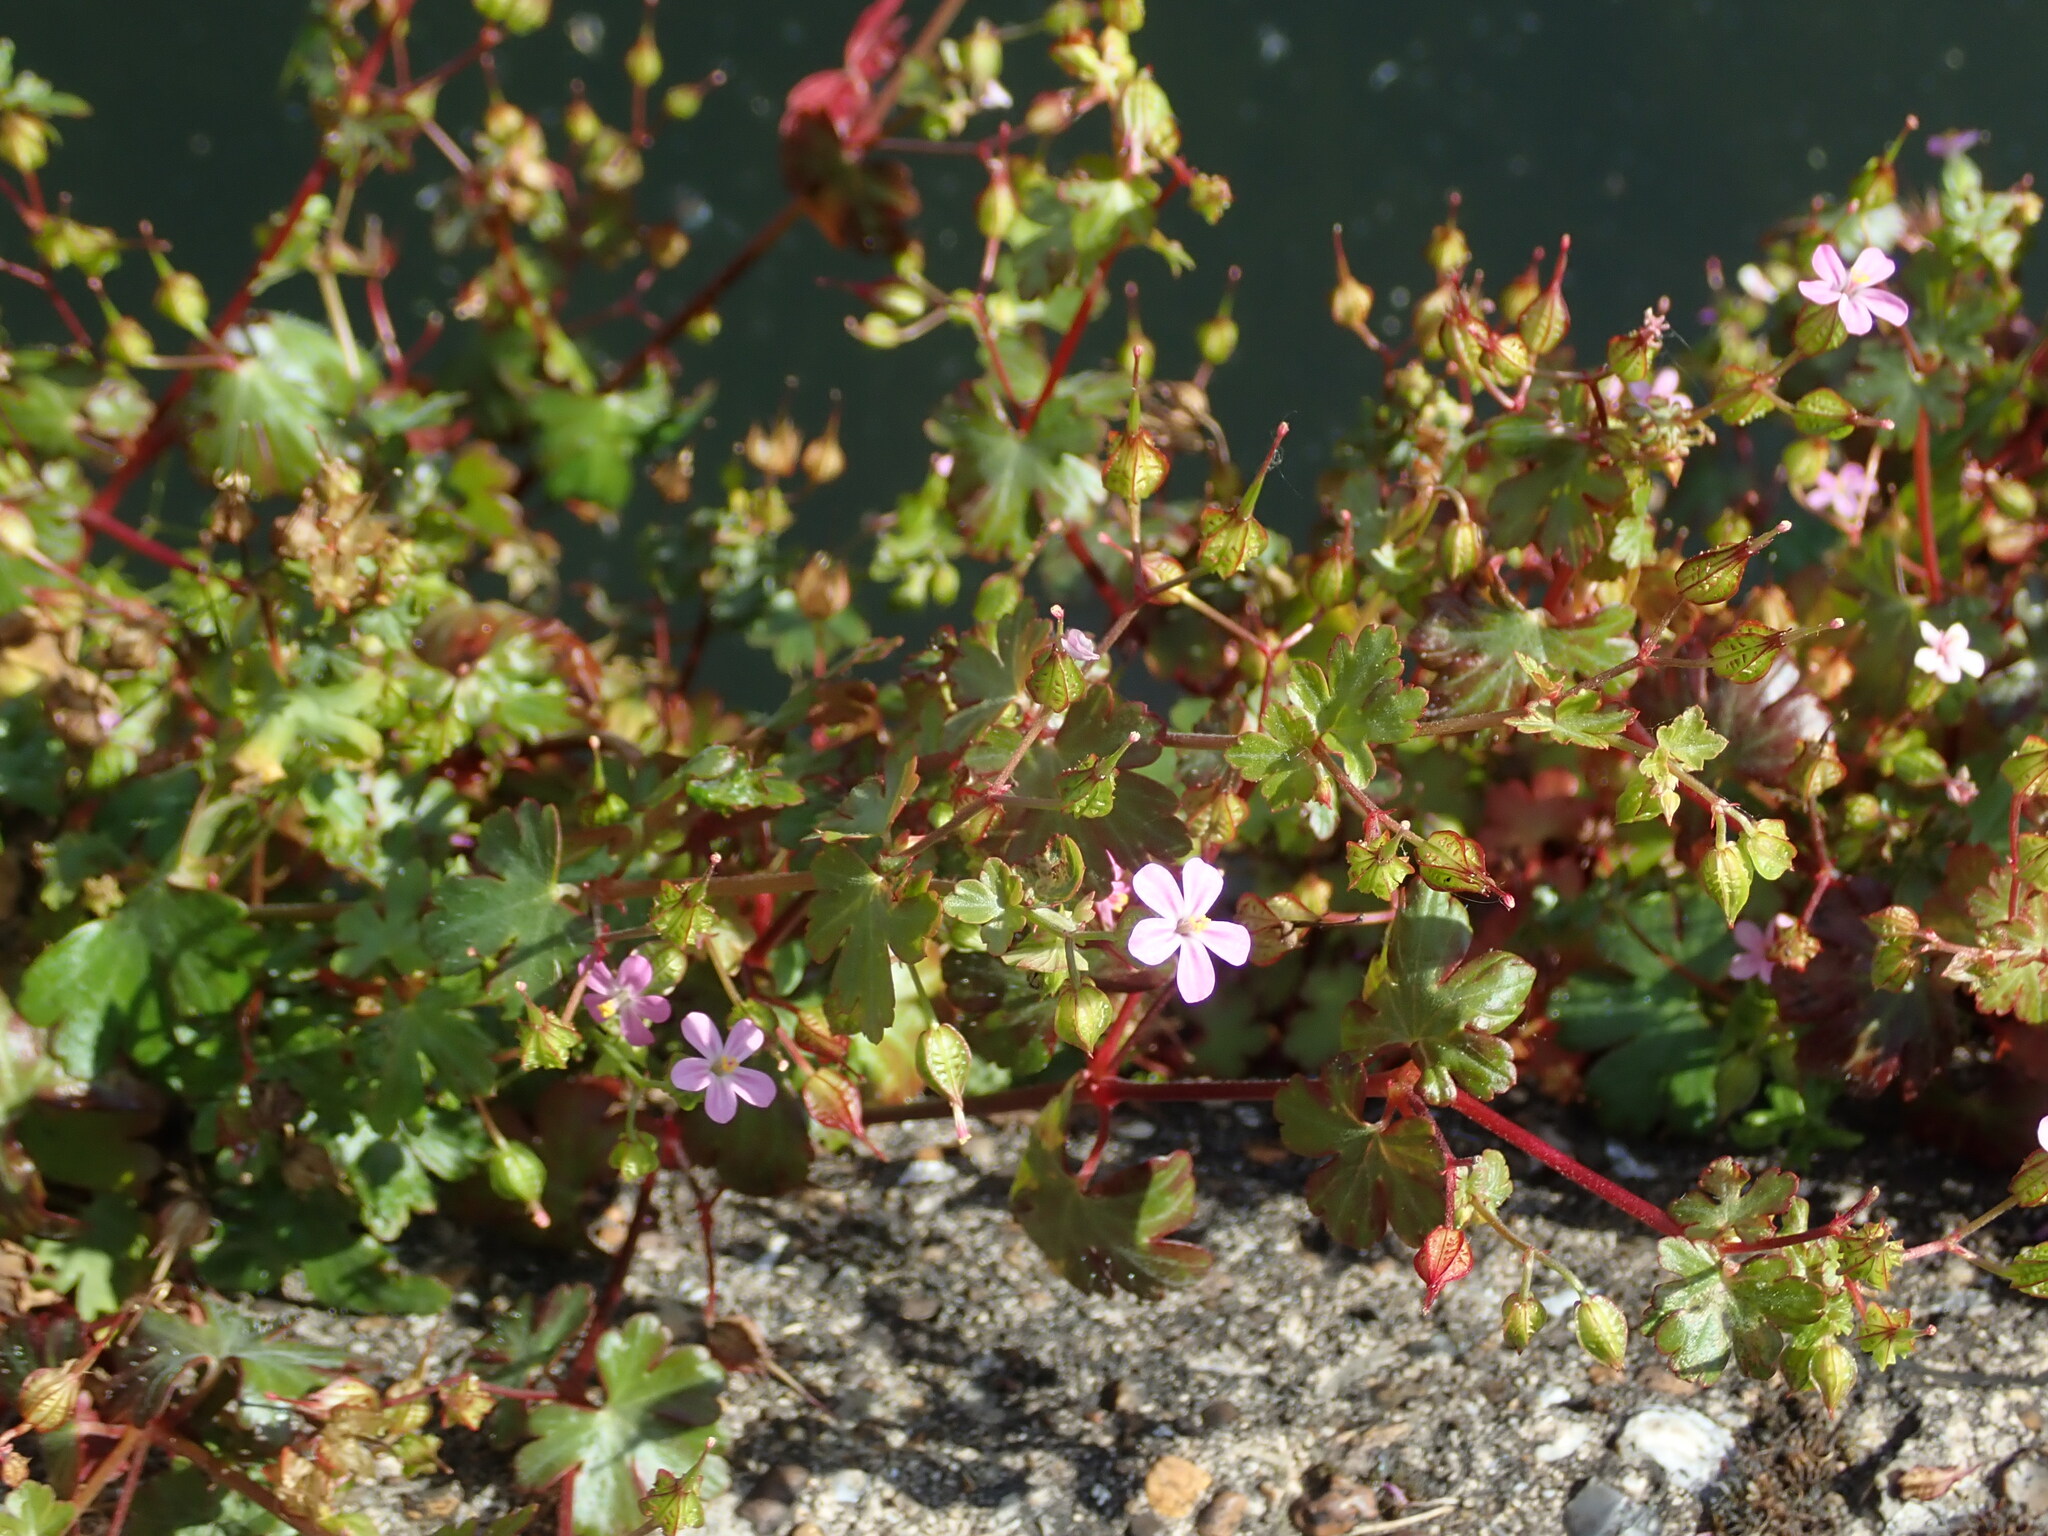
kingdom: Plantae
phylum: Tracheophyta
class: Magnoliopsida
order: Geraniales
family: Geraniaceae
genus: Geranium
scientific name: Geranium lucidum
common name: Shining crane's-bill
